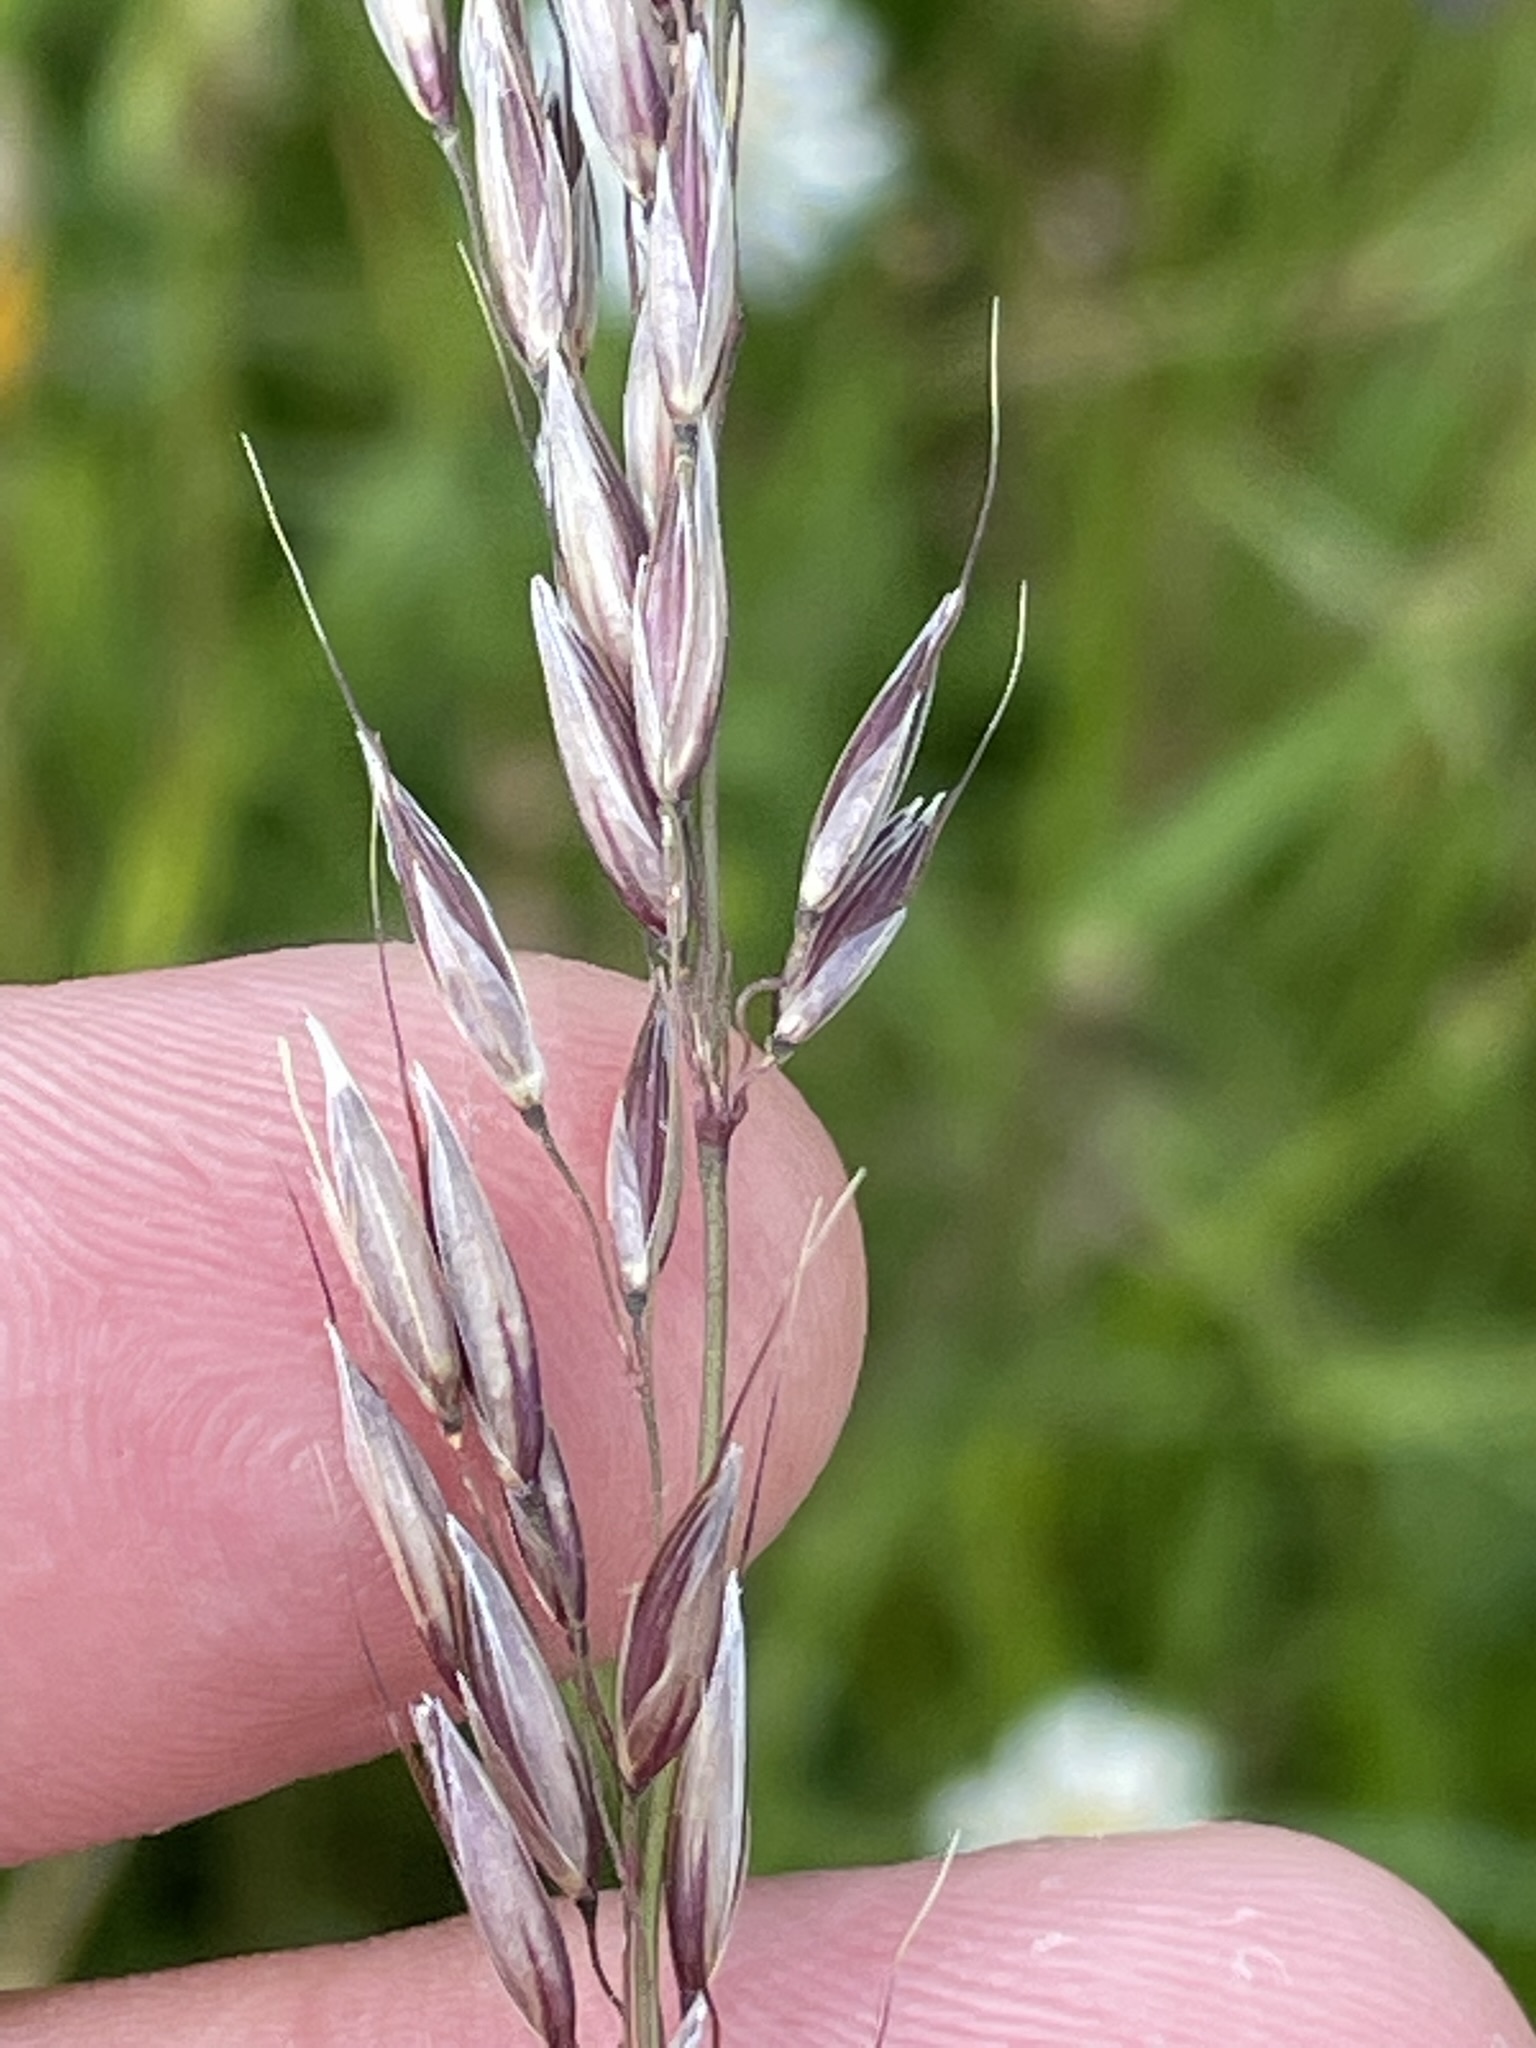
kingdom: Plantae
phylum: Tracheophyta
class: Liliopsida
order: Poales
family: Poaceae
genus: Arrhenatherum
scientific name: Arrhenatherum elatius
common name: Tall oatgrass
